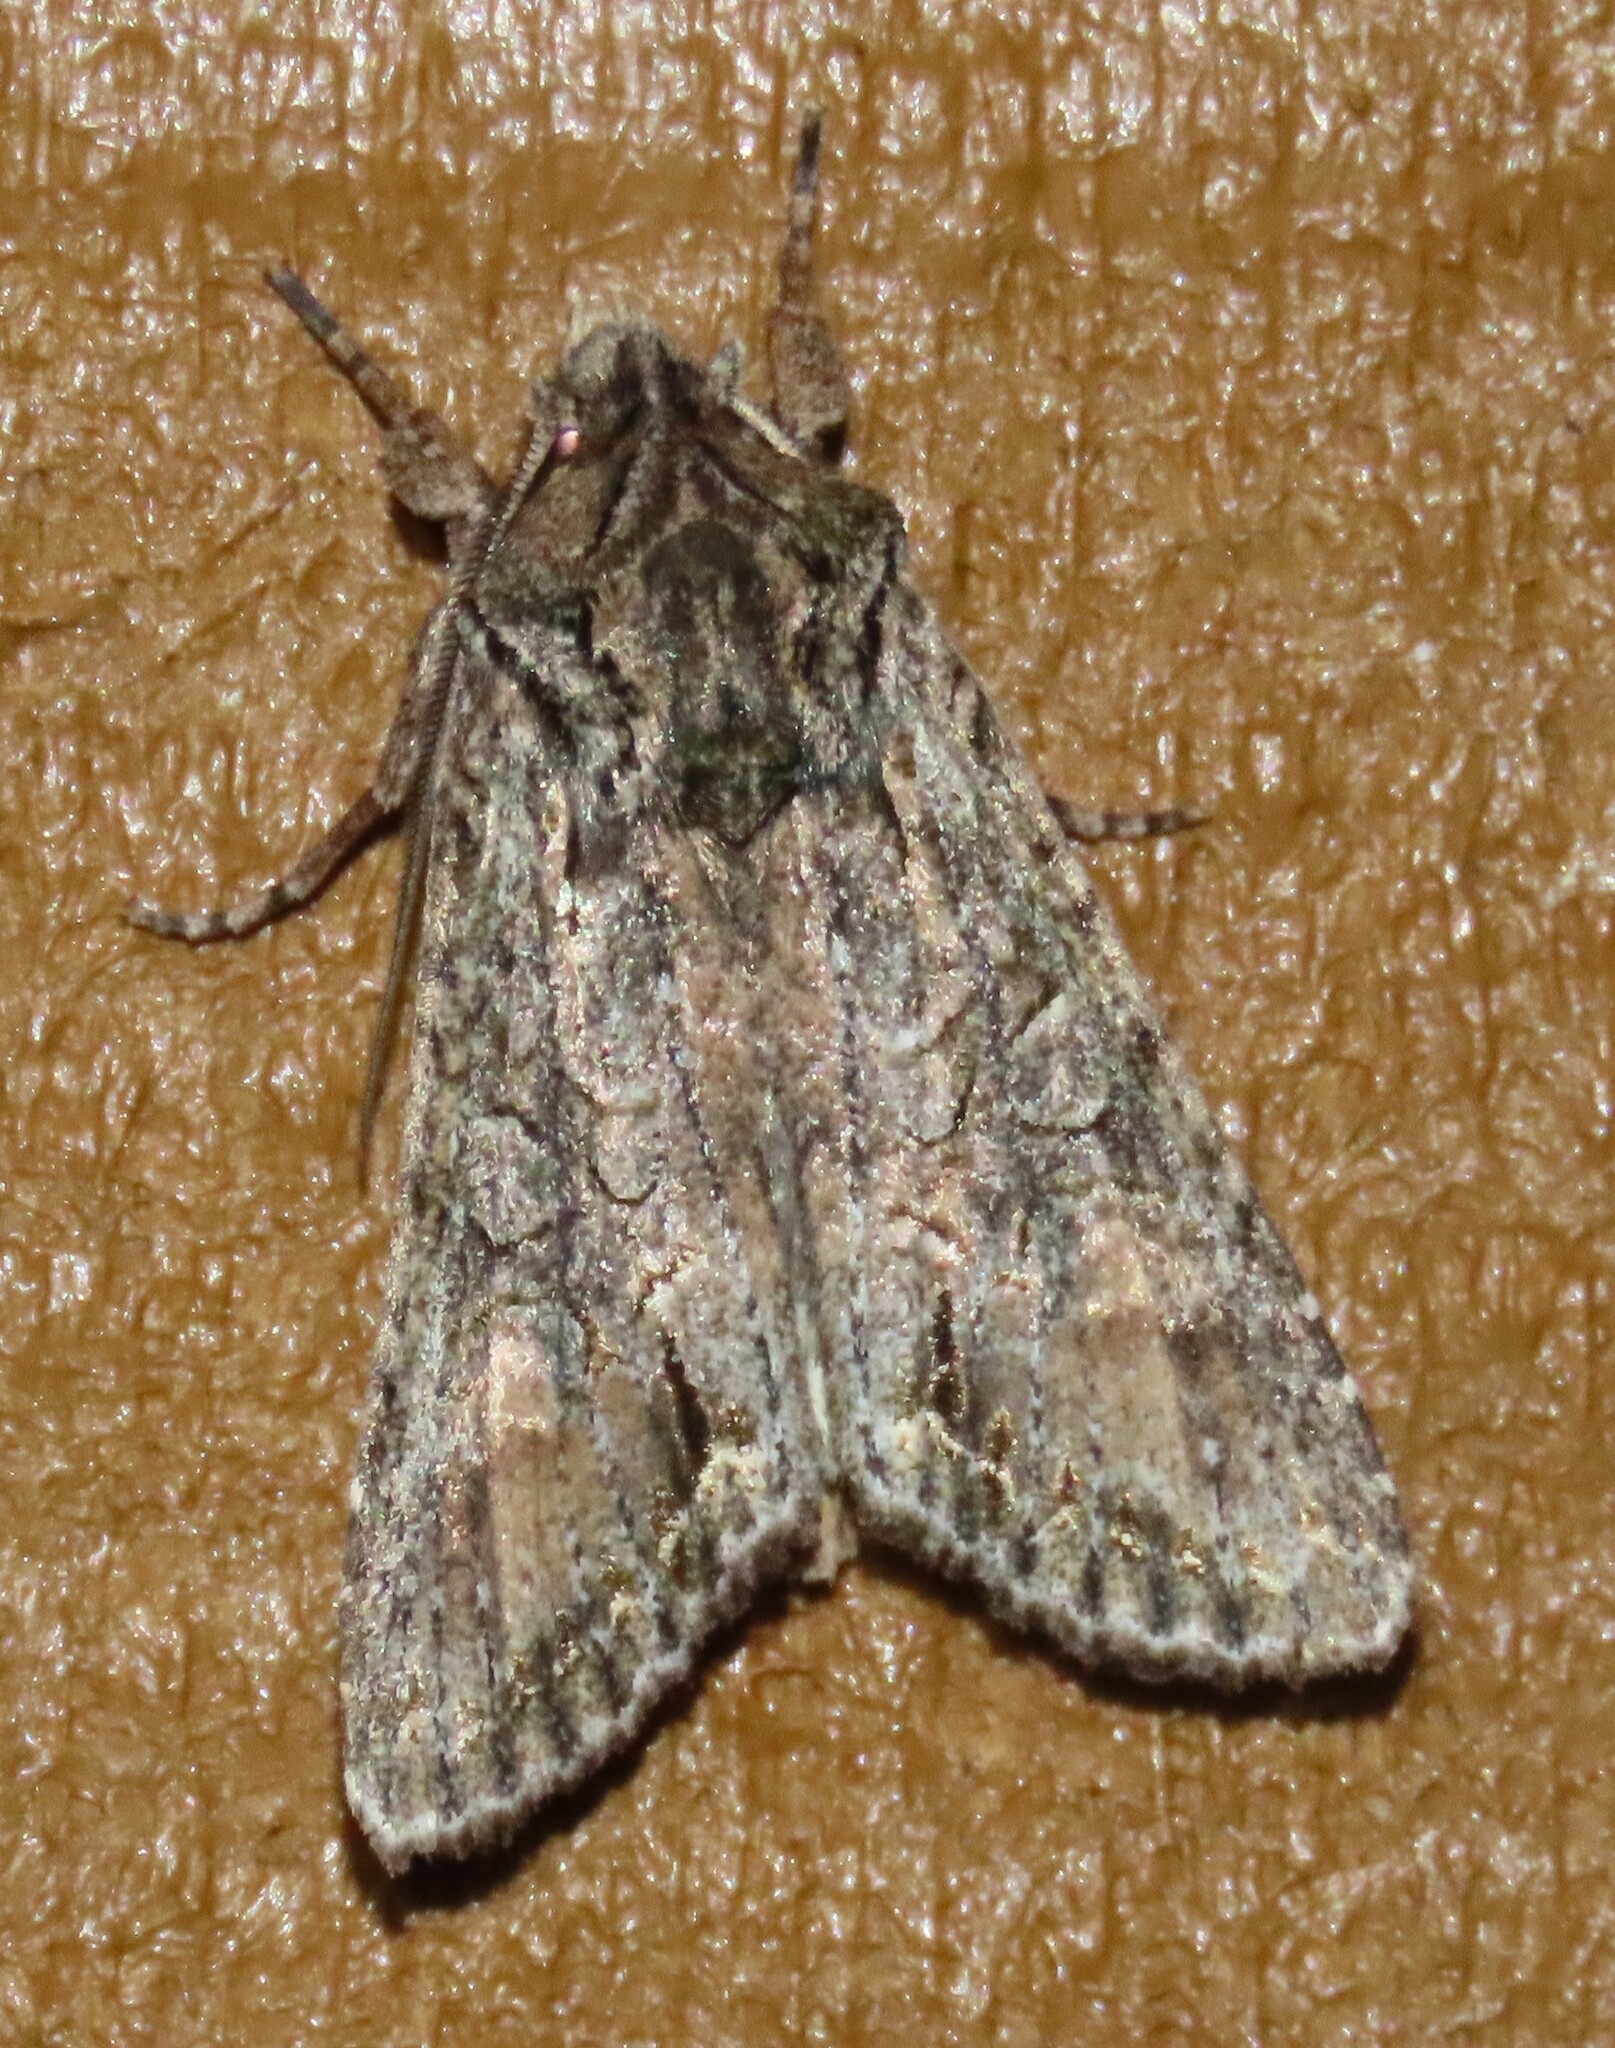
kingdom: Animalia
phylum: Arthropoda
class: Insecta
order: Lepidoptera
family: Noctuidae
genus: Ichneutica
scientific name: Ichneutica mutans
